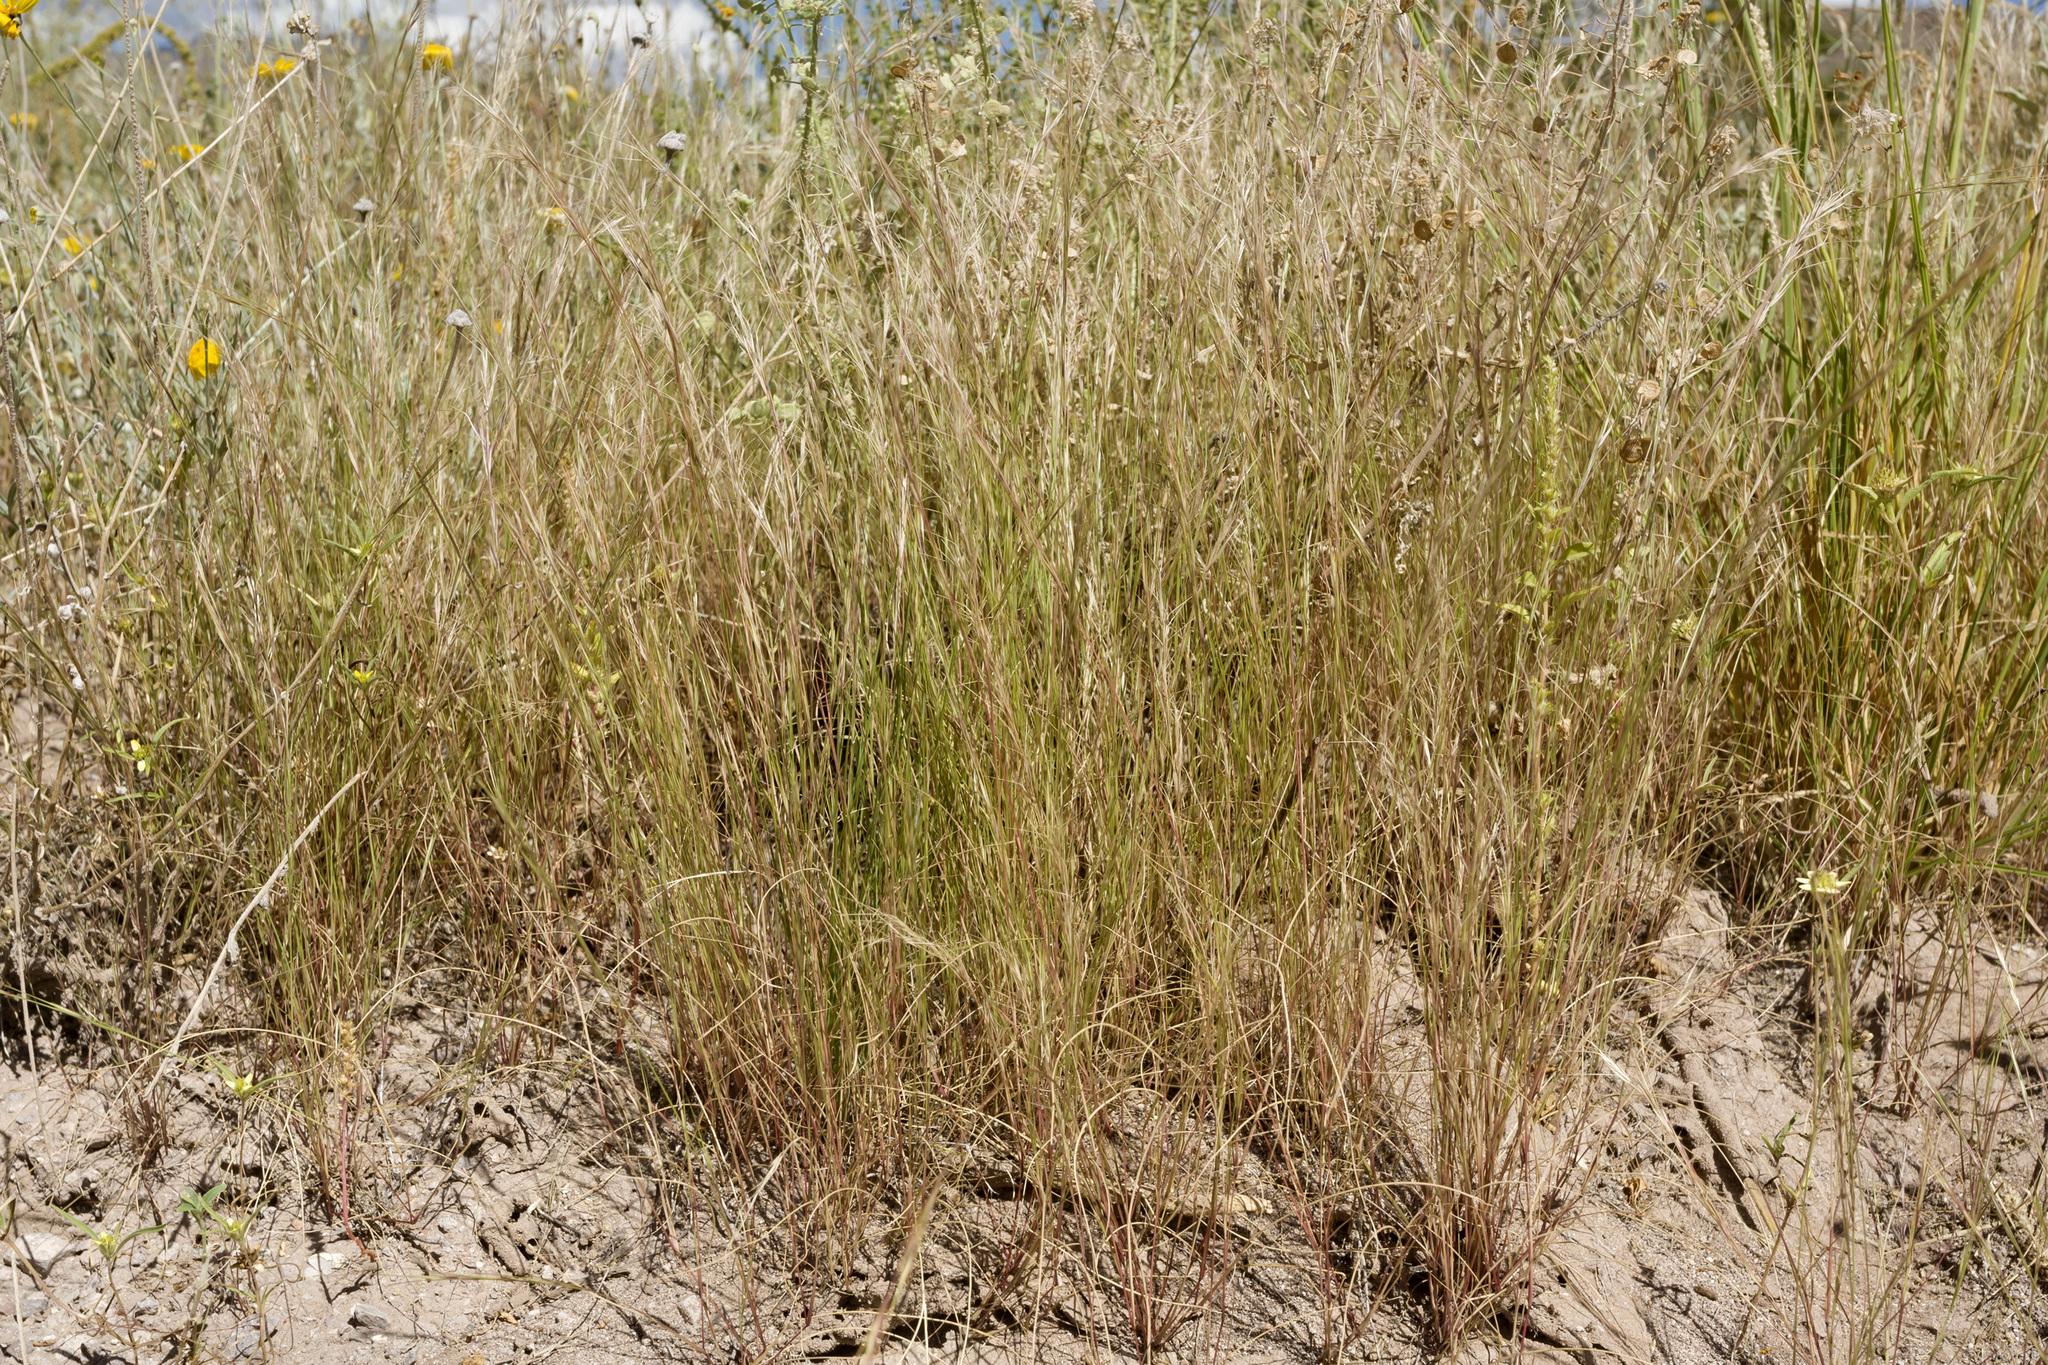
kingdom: Plantae
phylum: Tracheophyta
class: Liliopsida
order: Poales
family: Poaceae
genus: Aristida
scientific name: Aristida adscensionis
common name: Sixweeks threeawn
